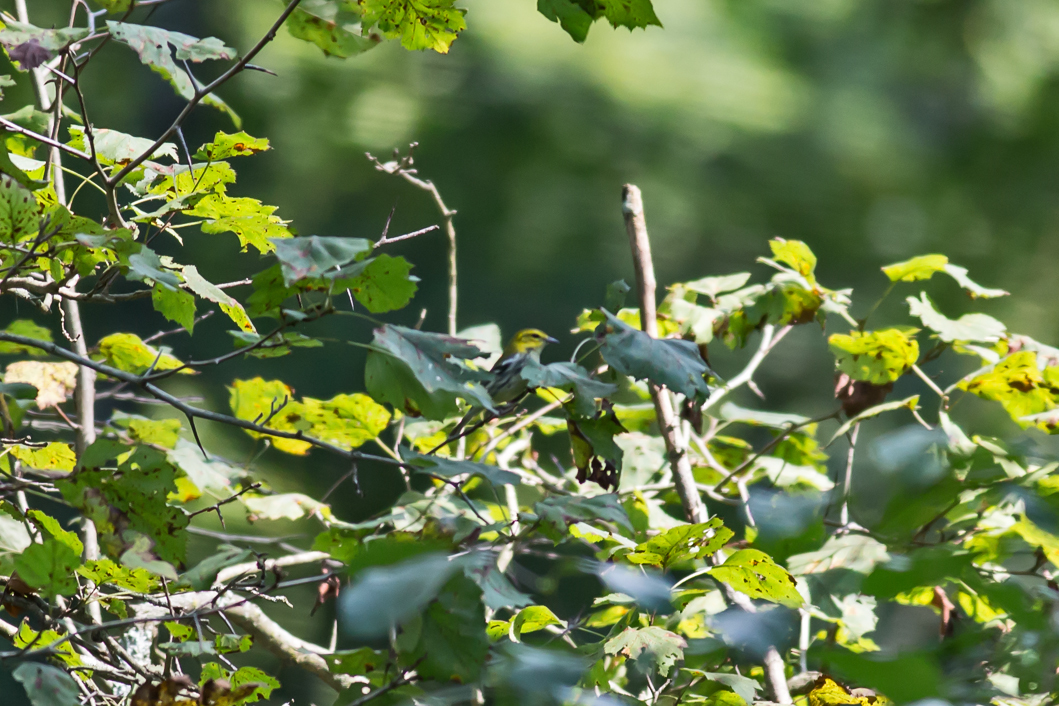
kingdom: Animalia
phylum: Chordata
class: Aves
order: Passeriformes
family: Parulidae
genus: Setophaga
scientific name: Setophaga virens
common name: Black-throated green warbler
